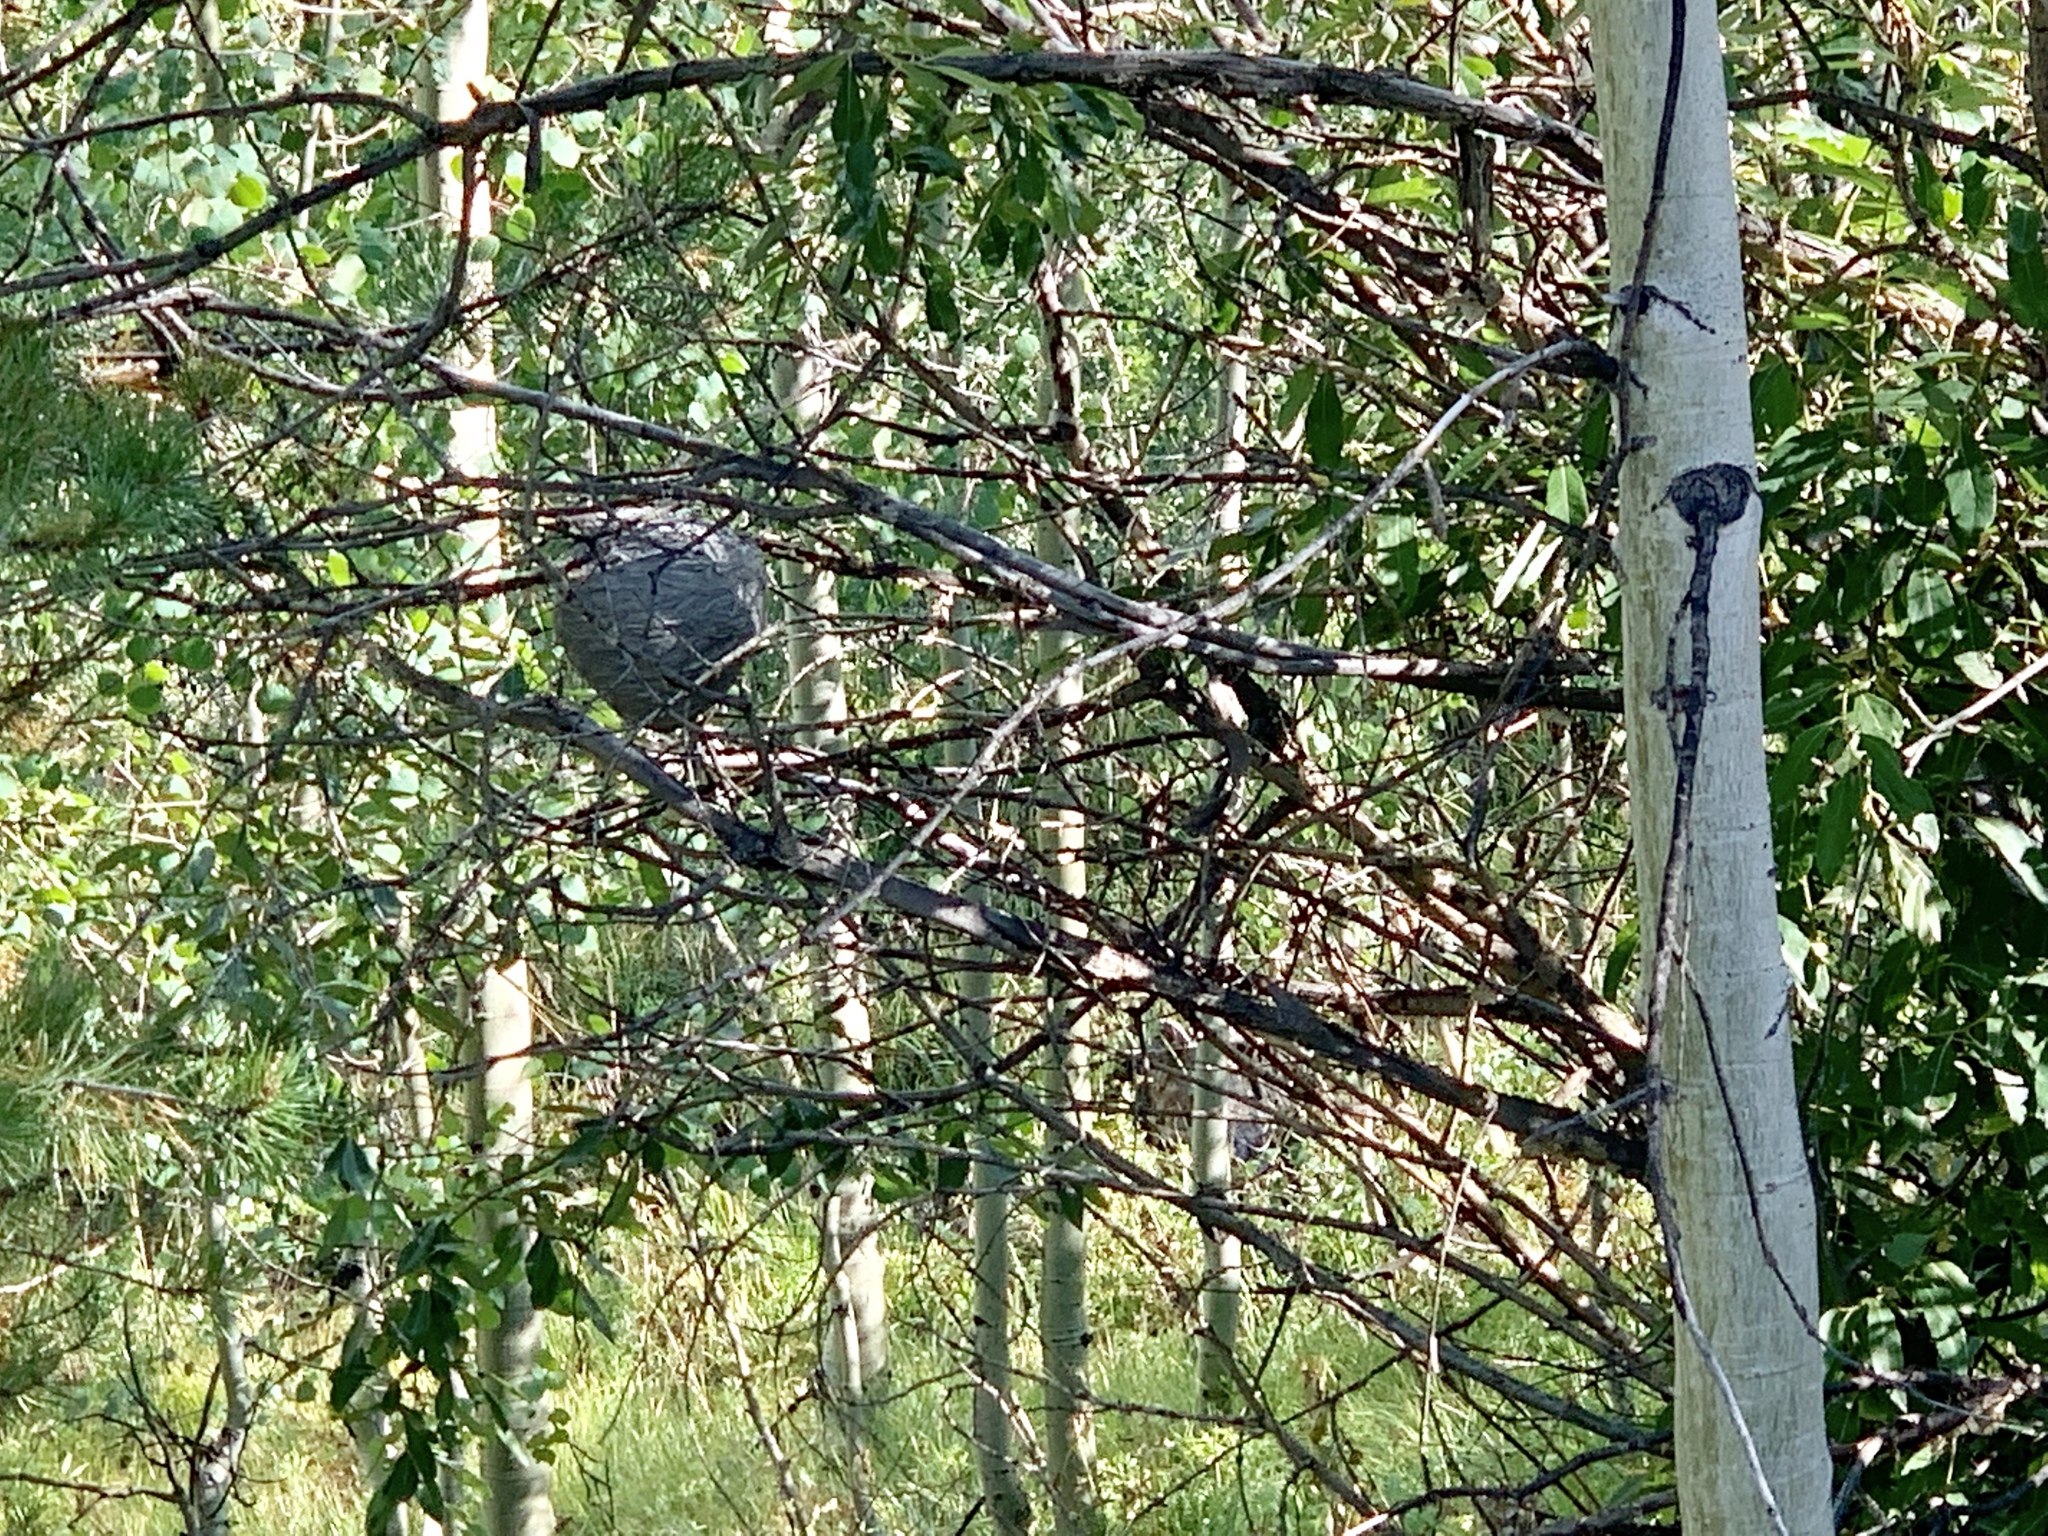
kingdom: Animalia
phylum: Arthropoda
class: Insecta
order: Hymenoptera
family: Vespidae
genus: Dolichovespula
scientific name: Dolichovespula
